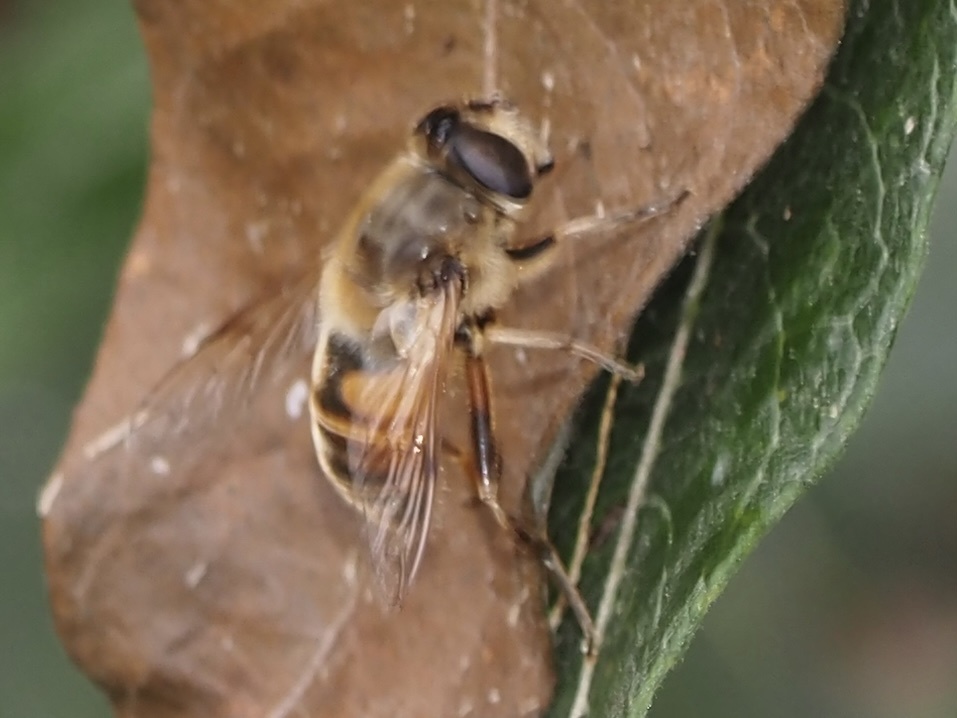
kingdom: Animalia
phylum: Arthropoda
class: Insecta
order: Diptera
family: Syrphidae
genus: Eristalis
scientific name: Eristalis tenax
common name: Drone fly
